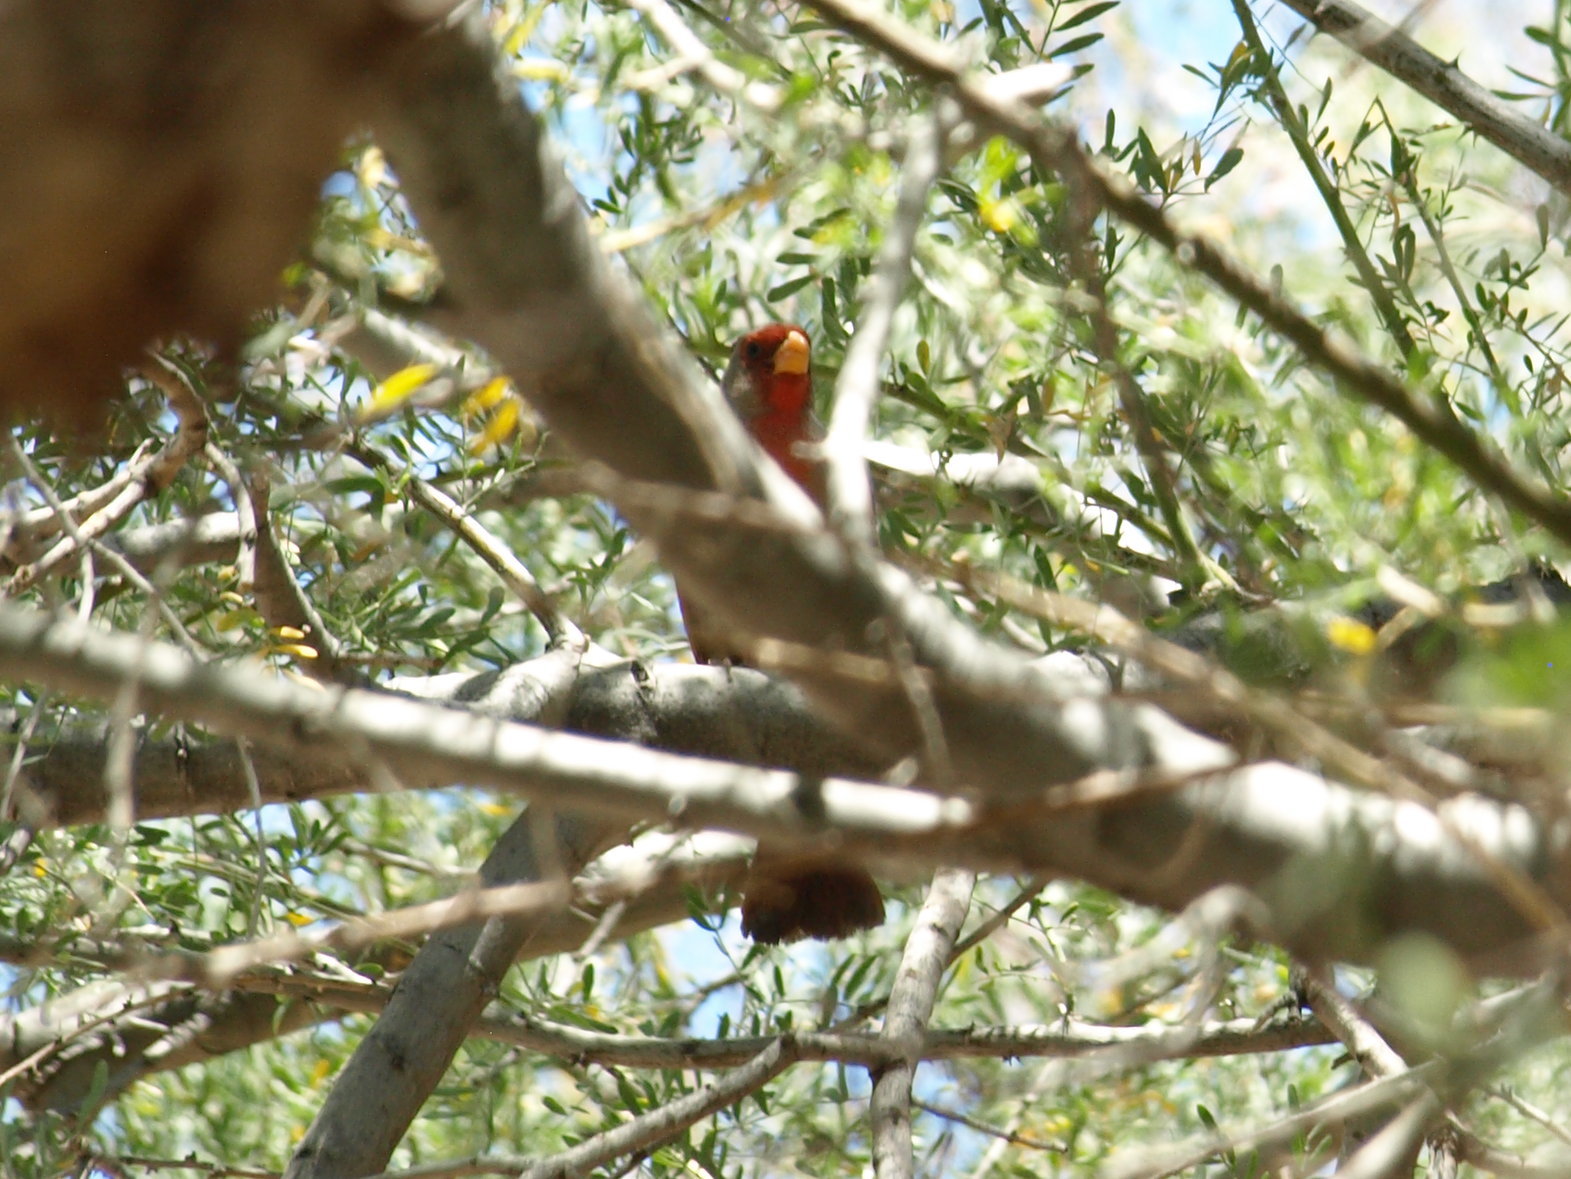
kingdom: Animalia
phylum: Chordata
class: Aves
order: Passeriformes
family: Cardinalidae
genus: Cardinalis
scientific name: Cardinalis sinuatus
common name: Pyrrhuloxia
